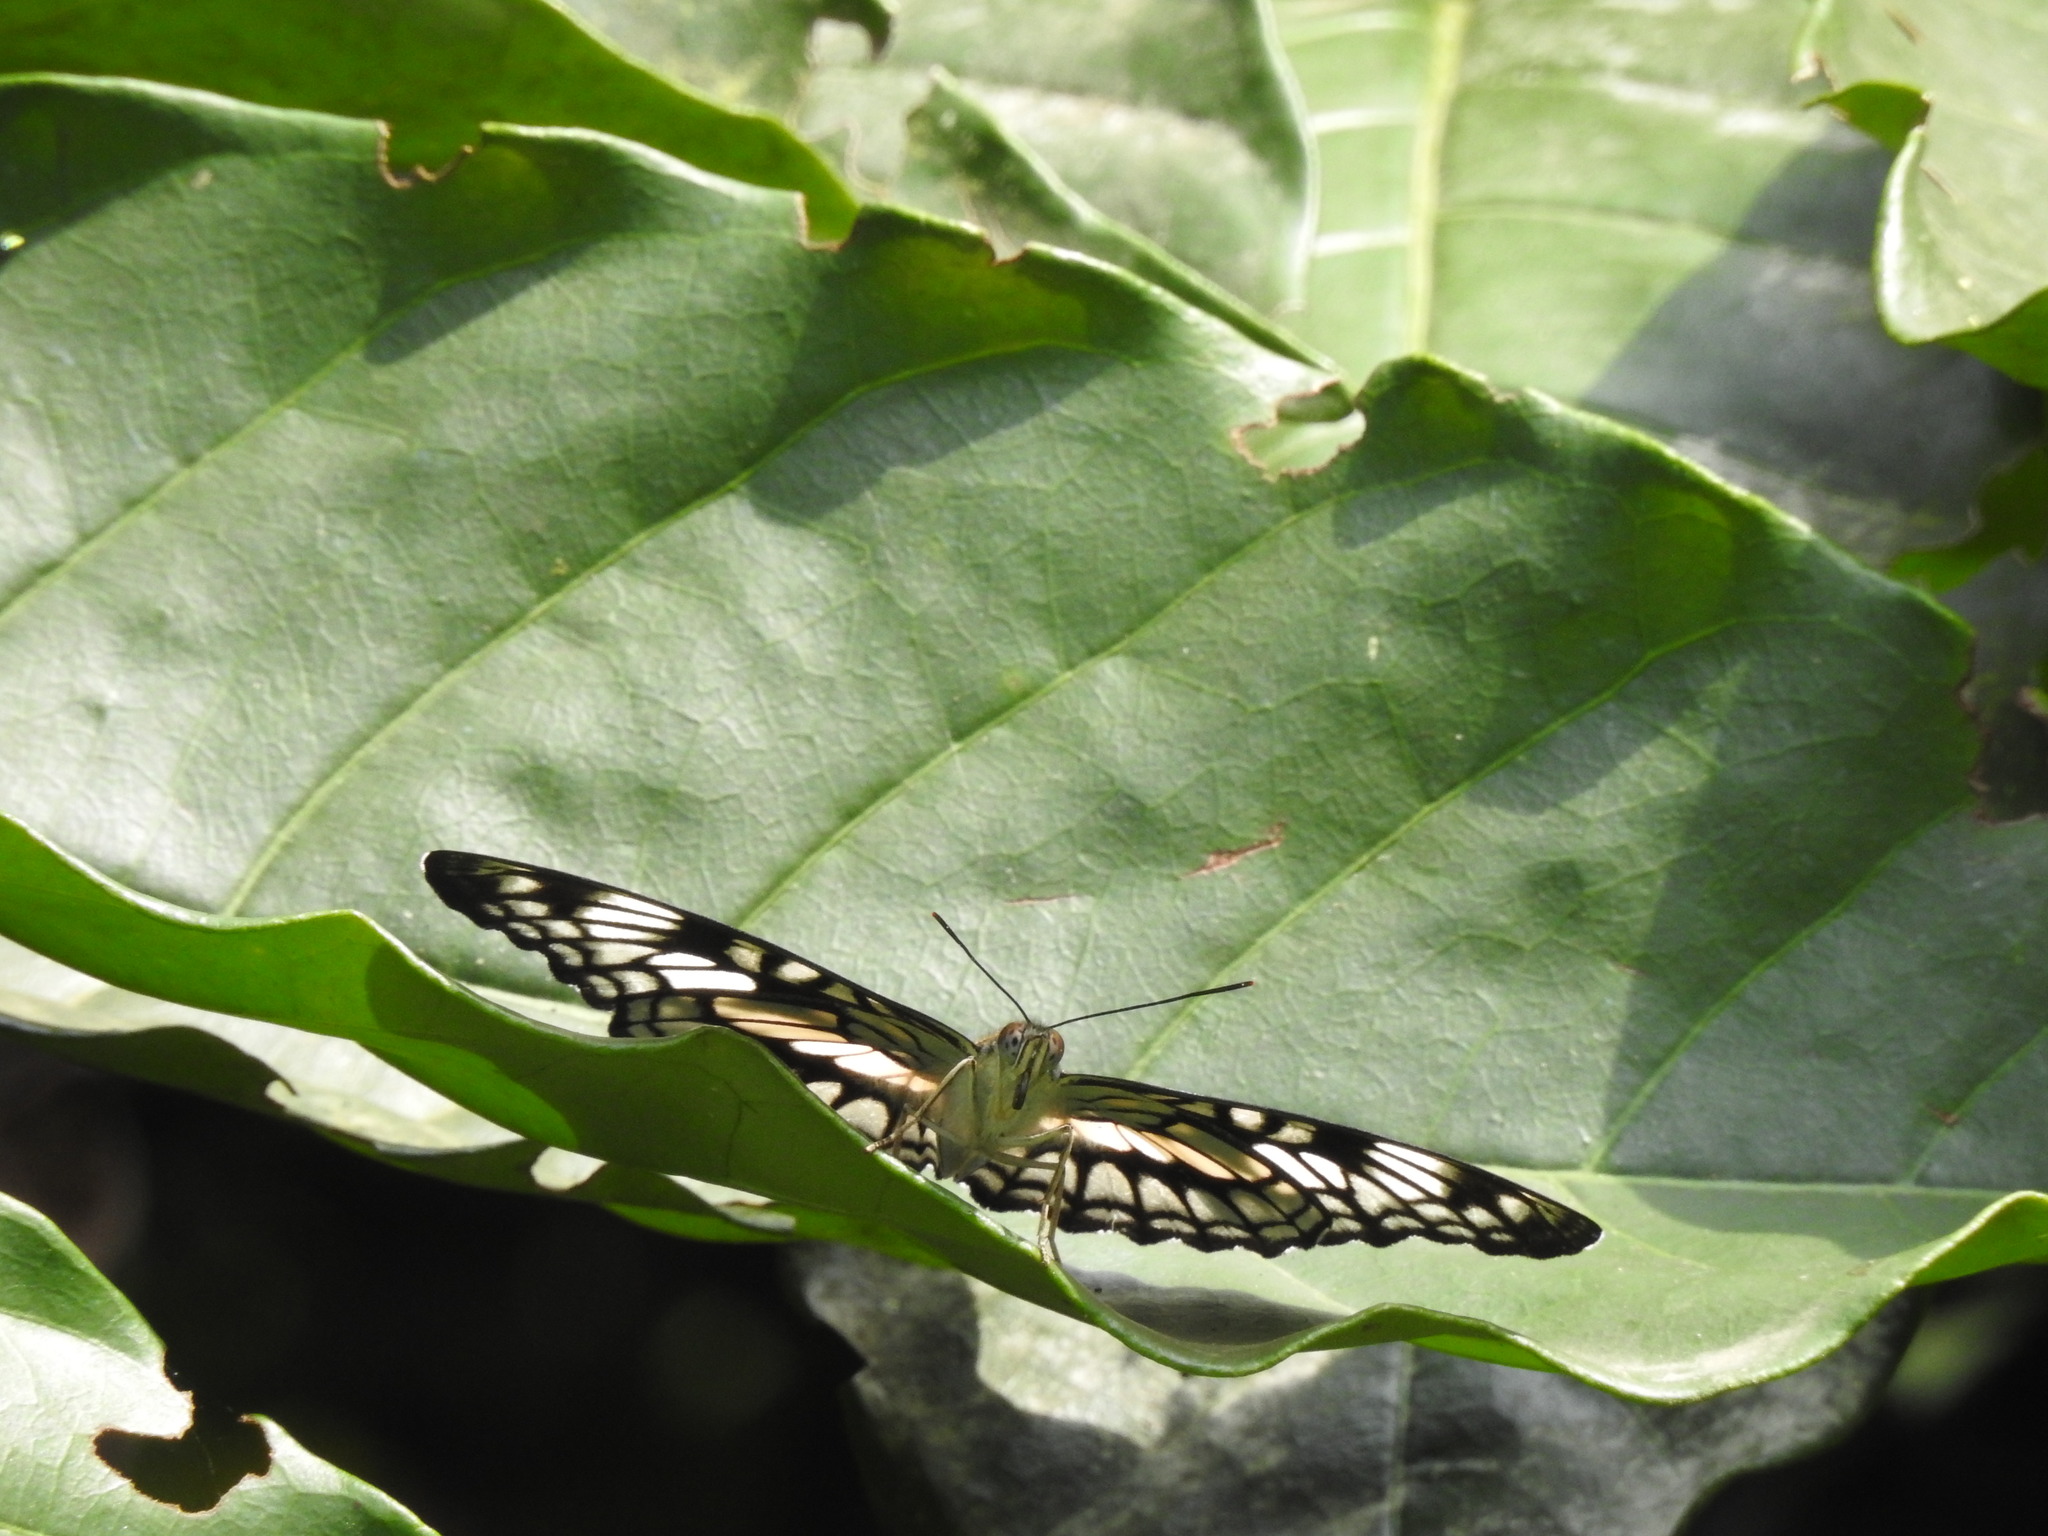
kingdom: Animalia
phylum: Arthropoda
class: Insecta
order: Lepidoptera
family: Nymphalidae
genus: Parathyma
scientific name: Parathyma ranga
